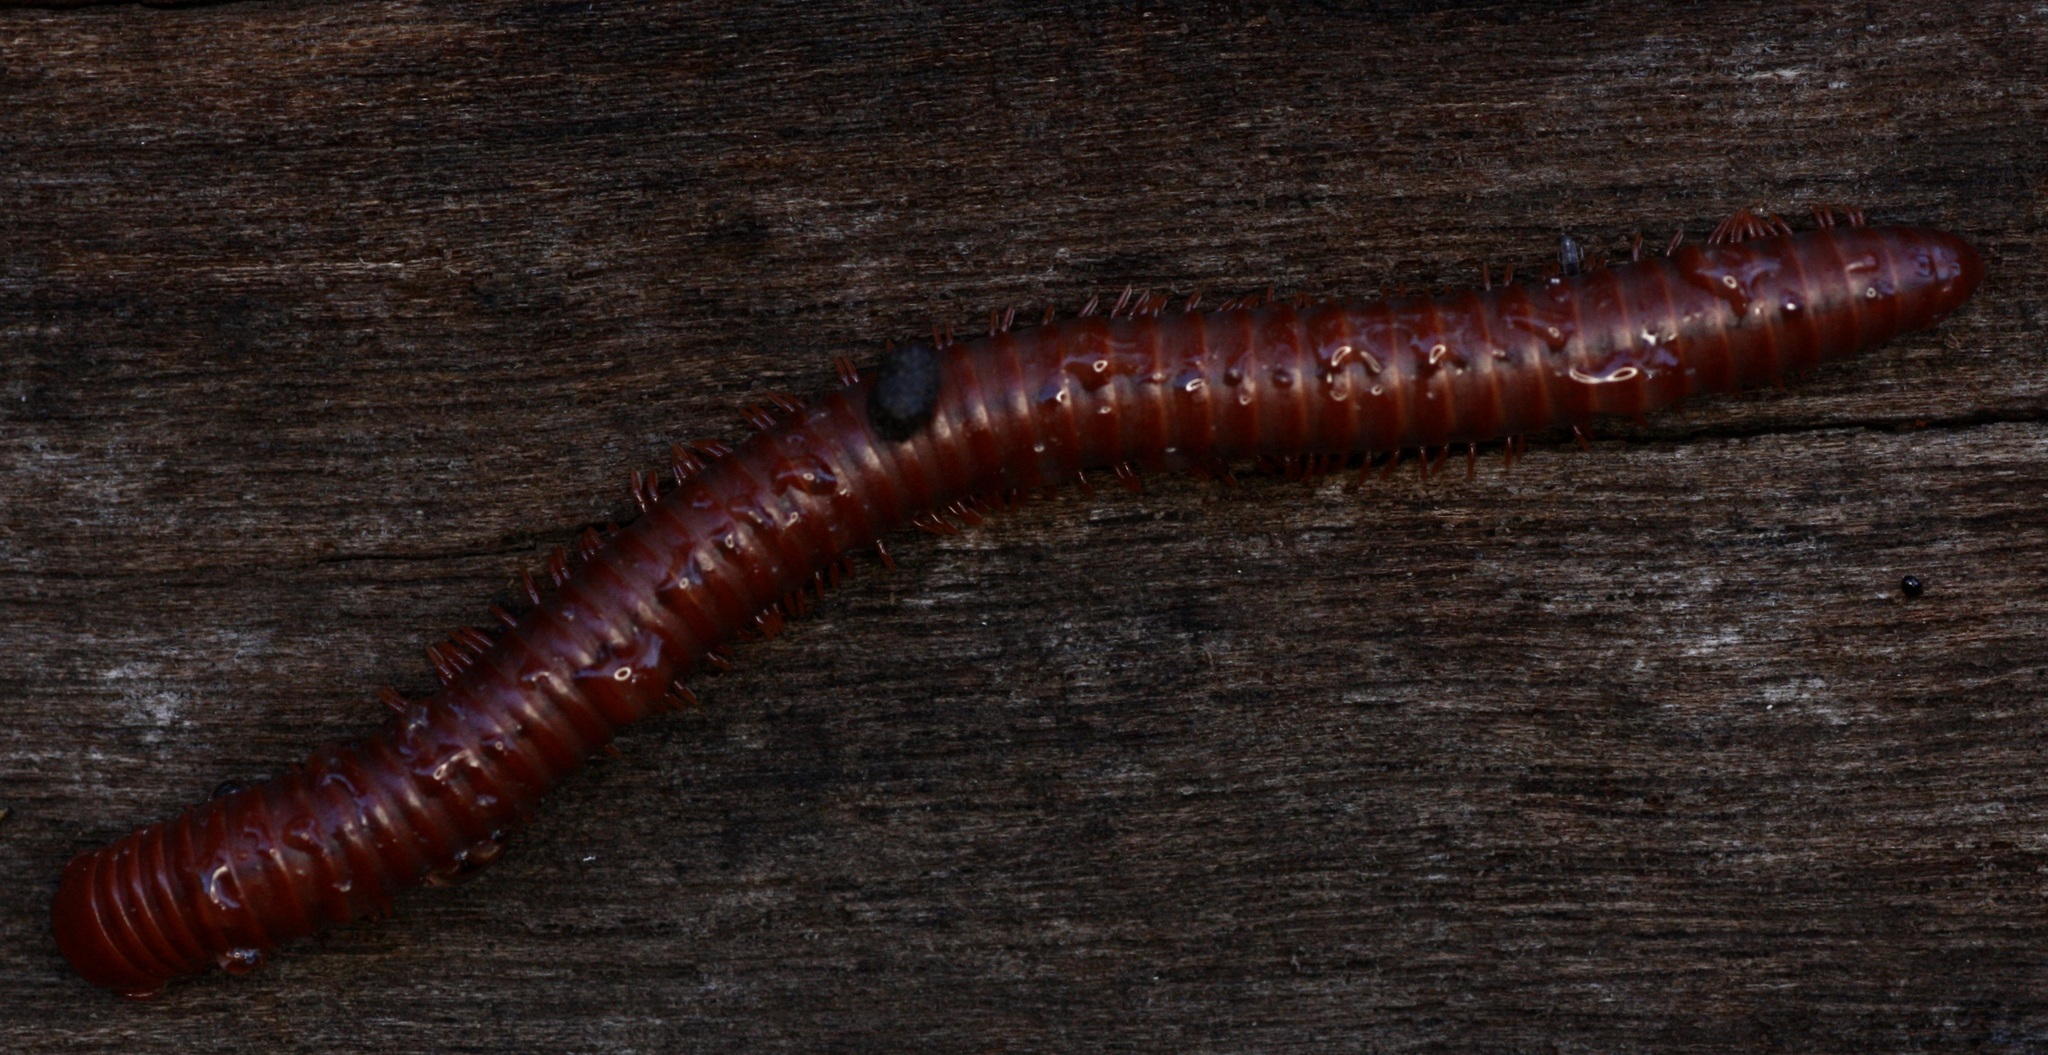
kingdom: Animalia
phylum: Arthropoda
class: Diplopoda
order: Spirobolida
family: Pachybolidae
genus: Trigoniulus
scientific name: Trigoniulus corallinus
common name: Millipede
